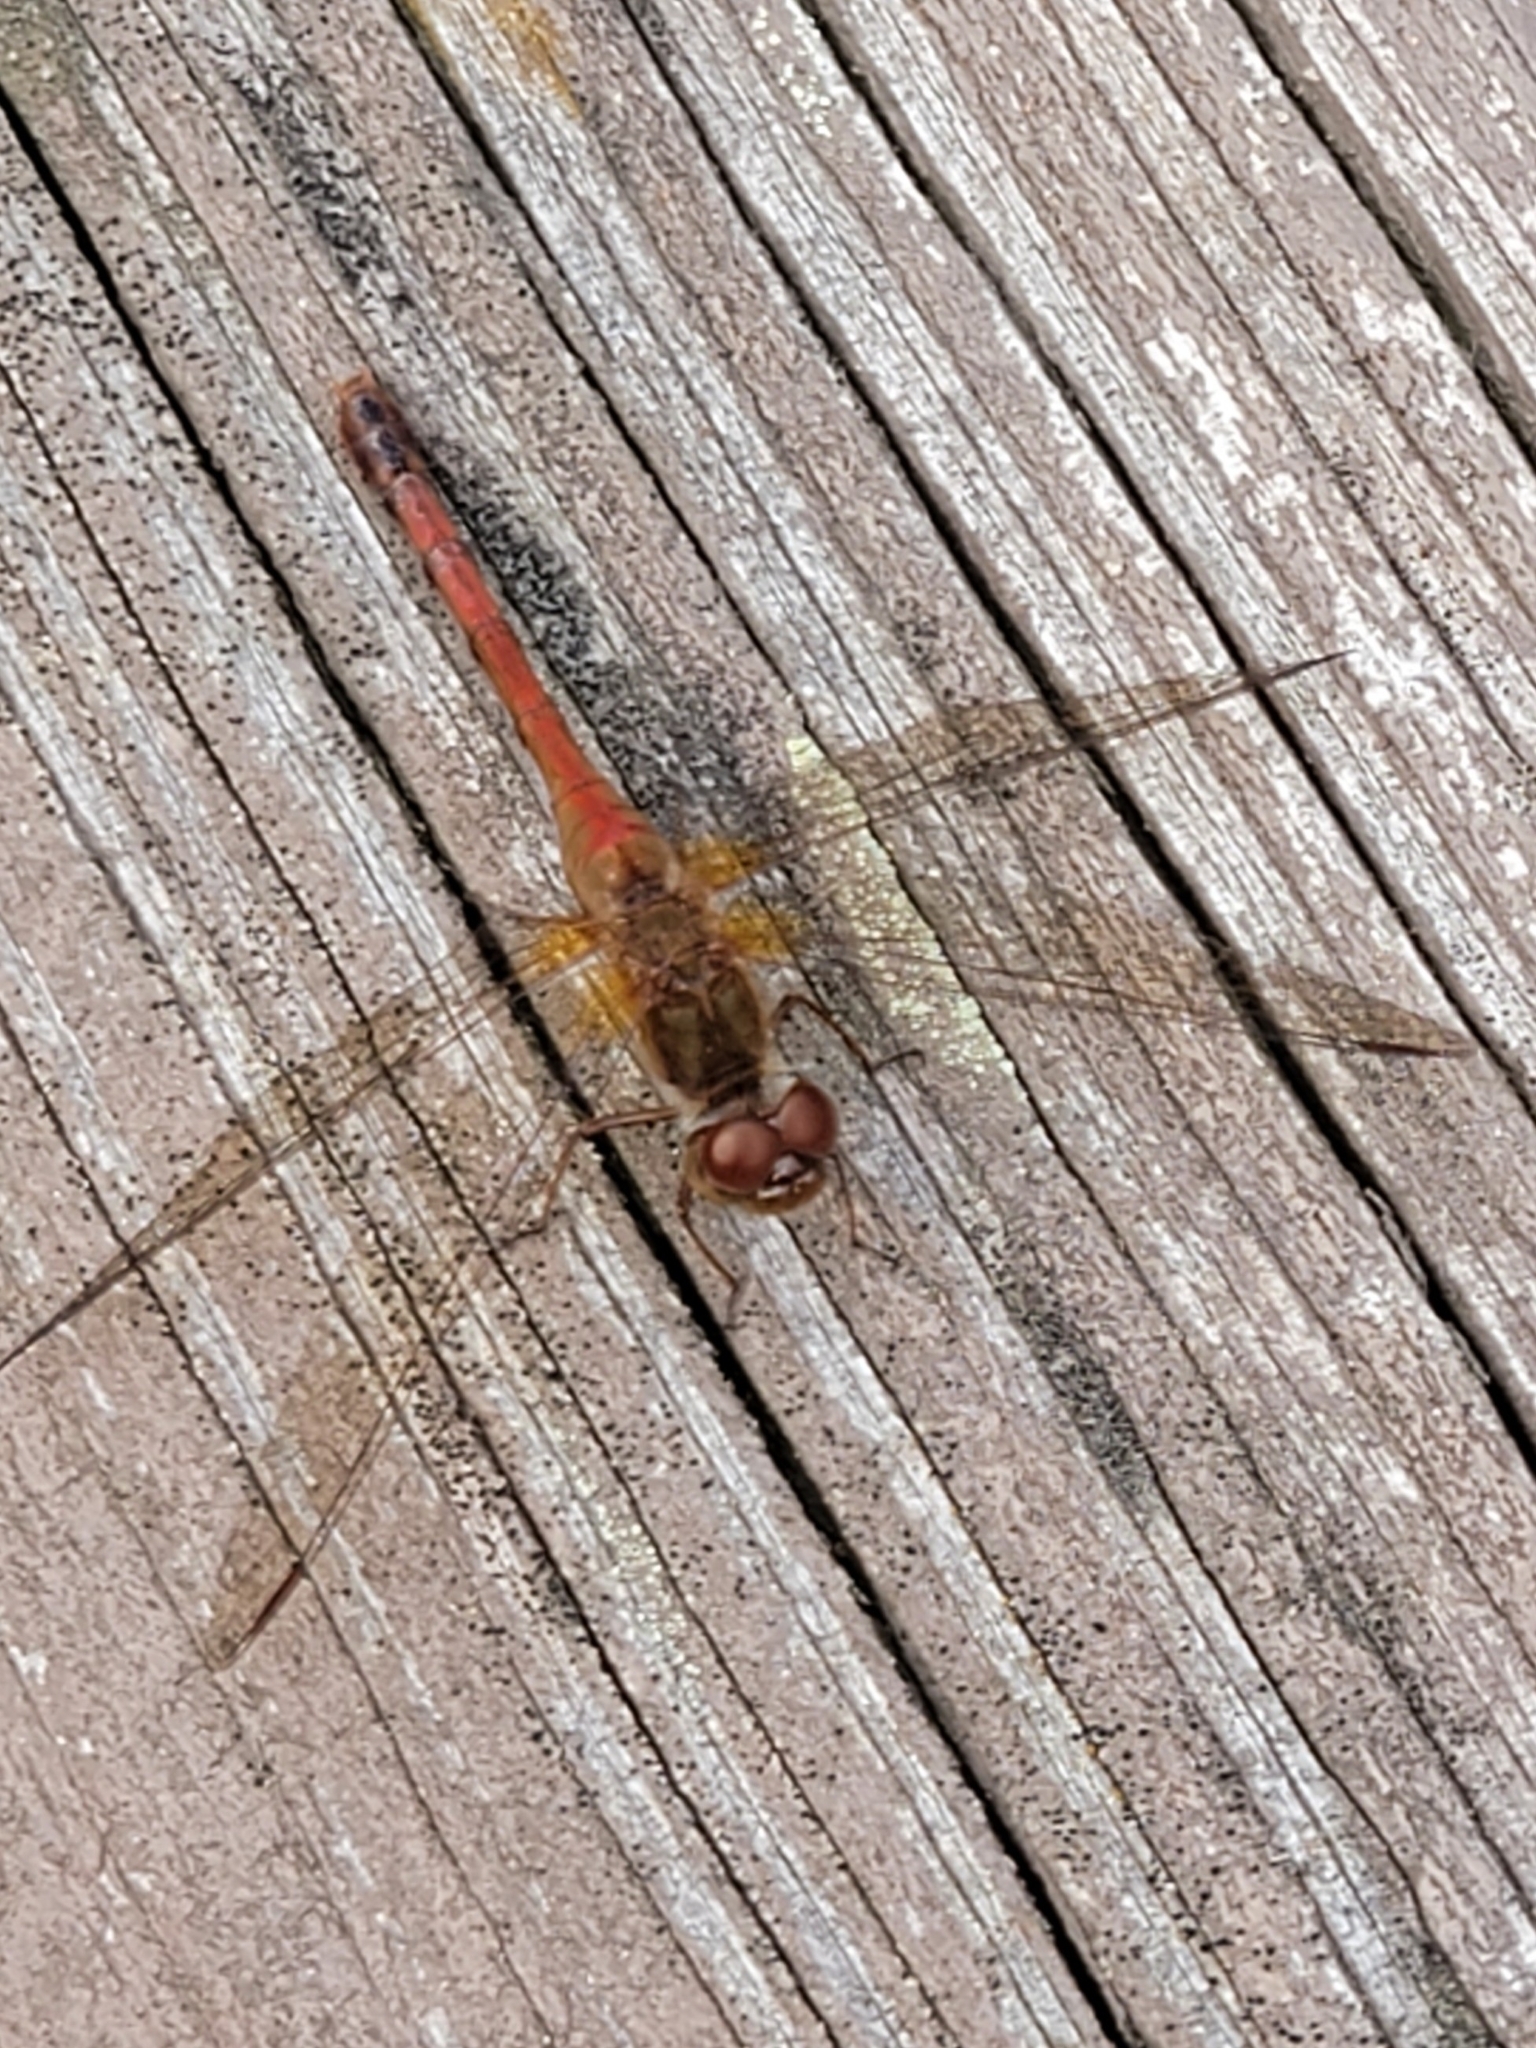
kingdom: Animalia
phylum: Arthropoda
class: Insecta
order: Odonata
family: Libellulidae
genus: Sympetrum
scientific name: Sympetrum vicinum
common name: Autumn meadowhawk
